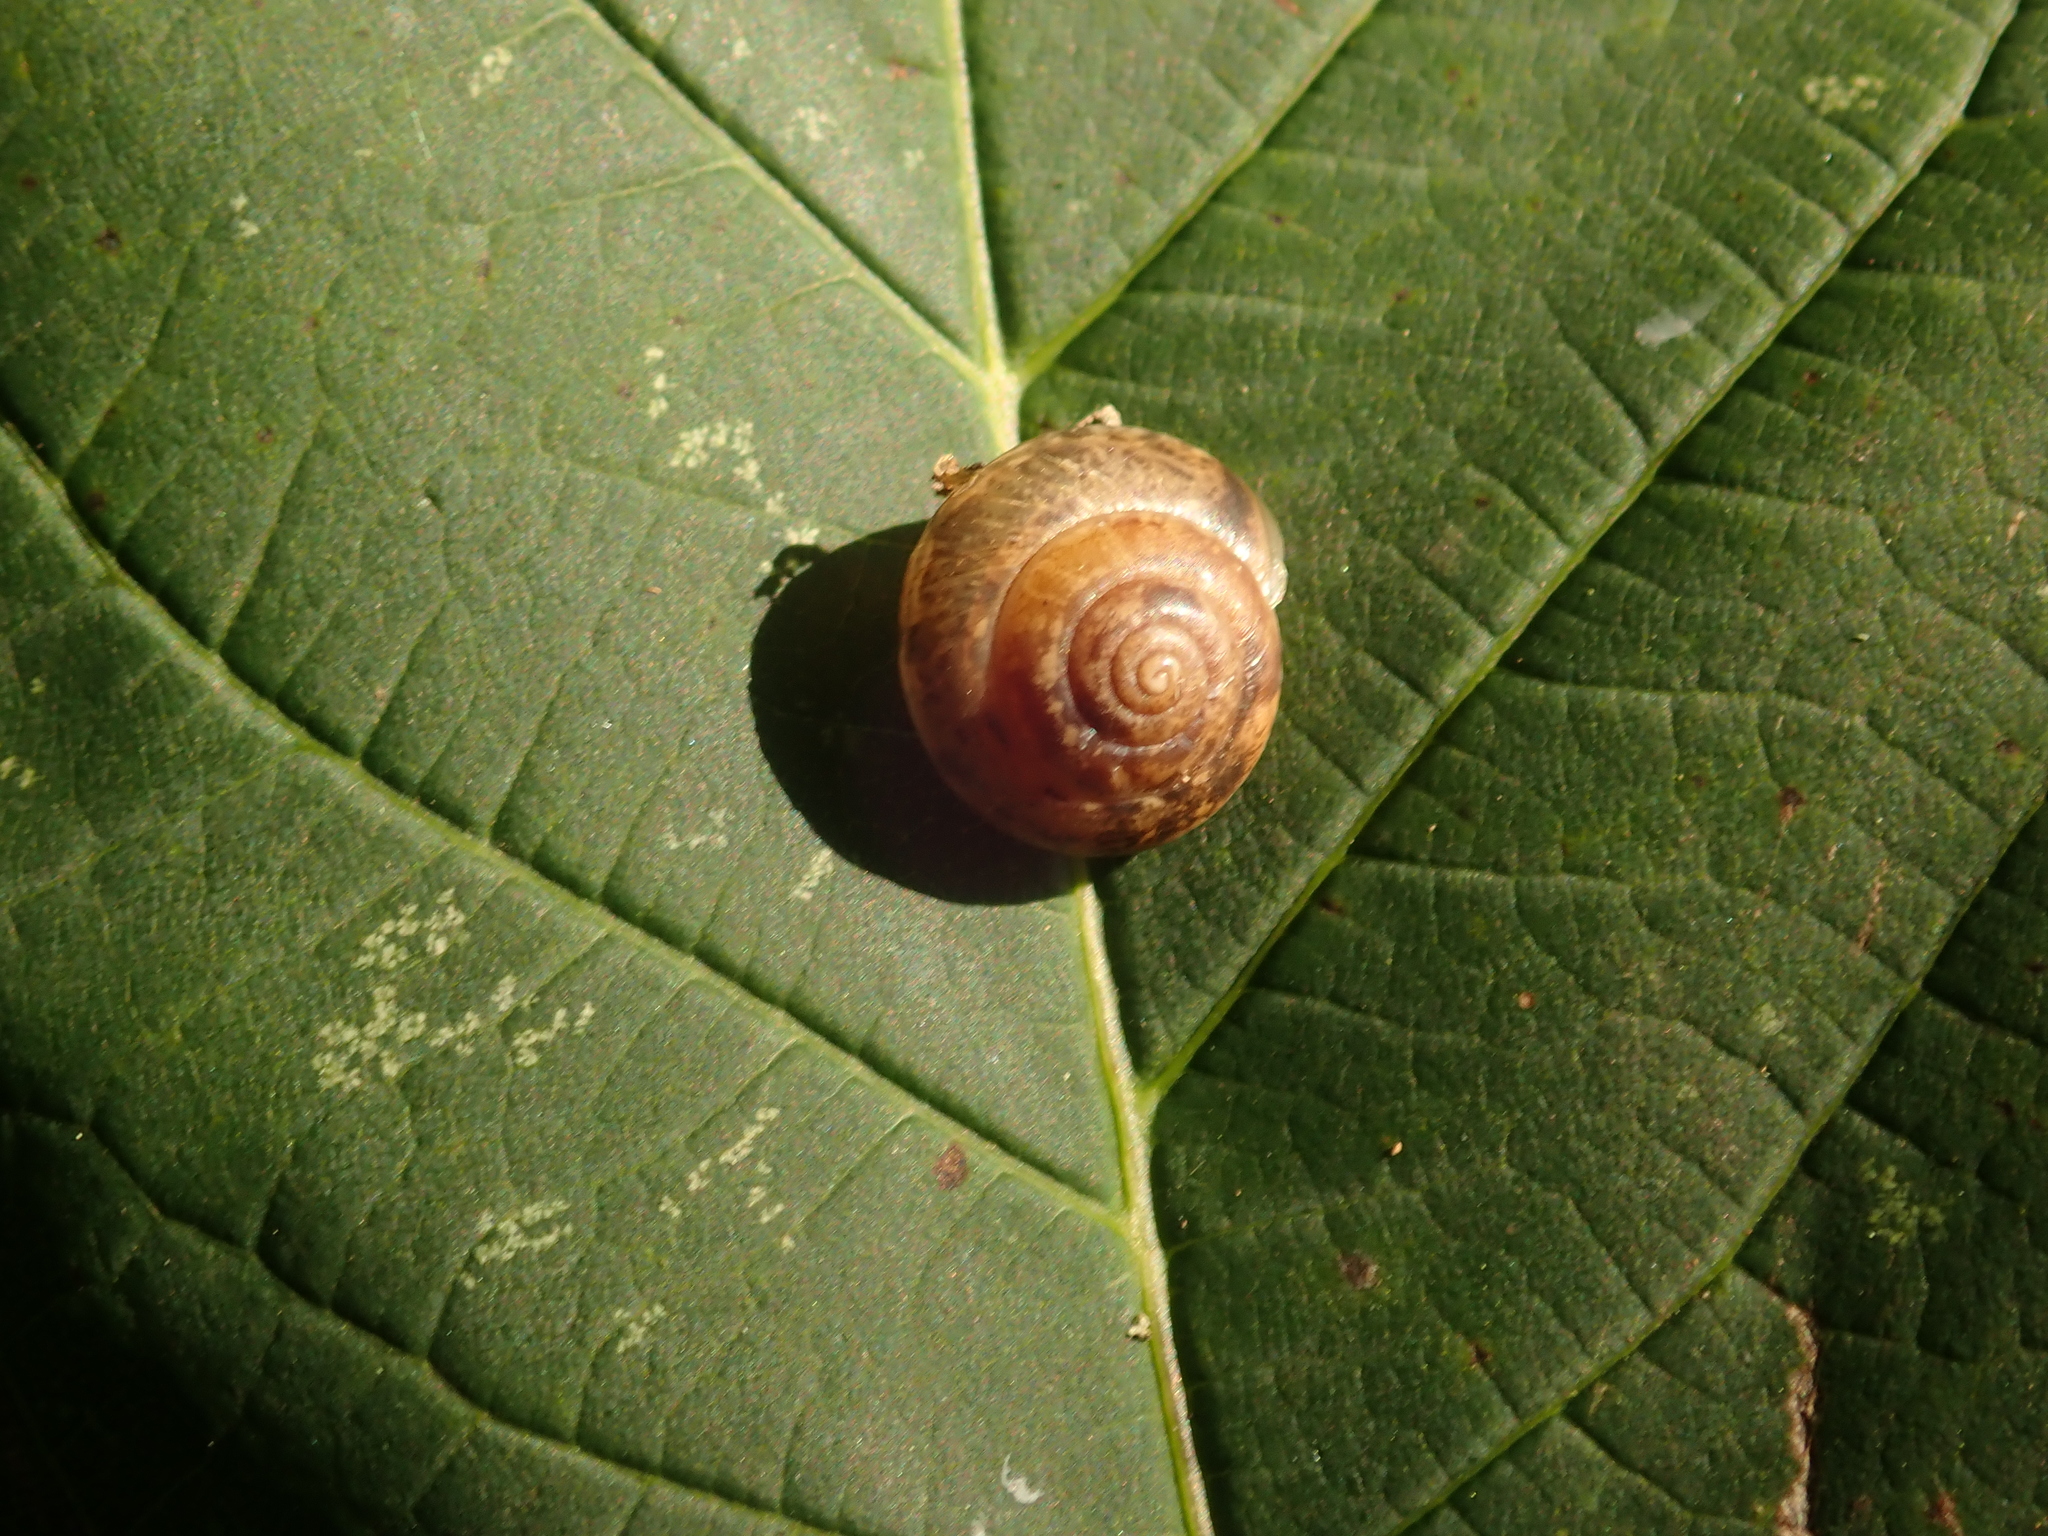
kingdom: Animalia
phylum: Mollusca
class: Gastropoda
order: Stylommatophora
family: Hygromiidae
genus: Hygromia
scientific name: Hygromia cinctella
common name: Girdled snail
